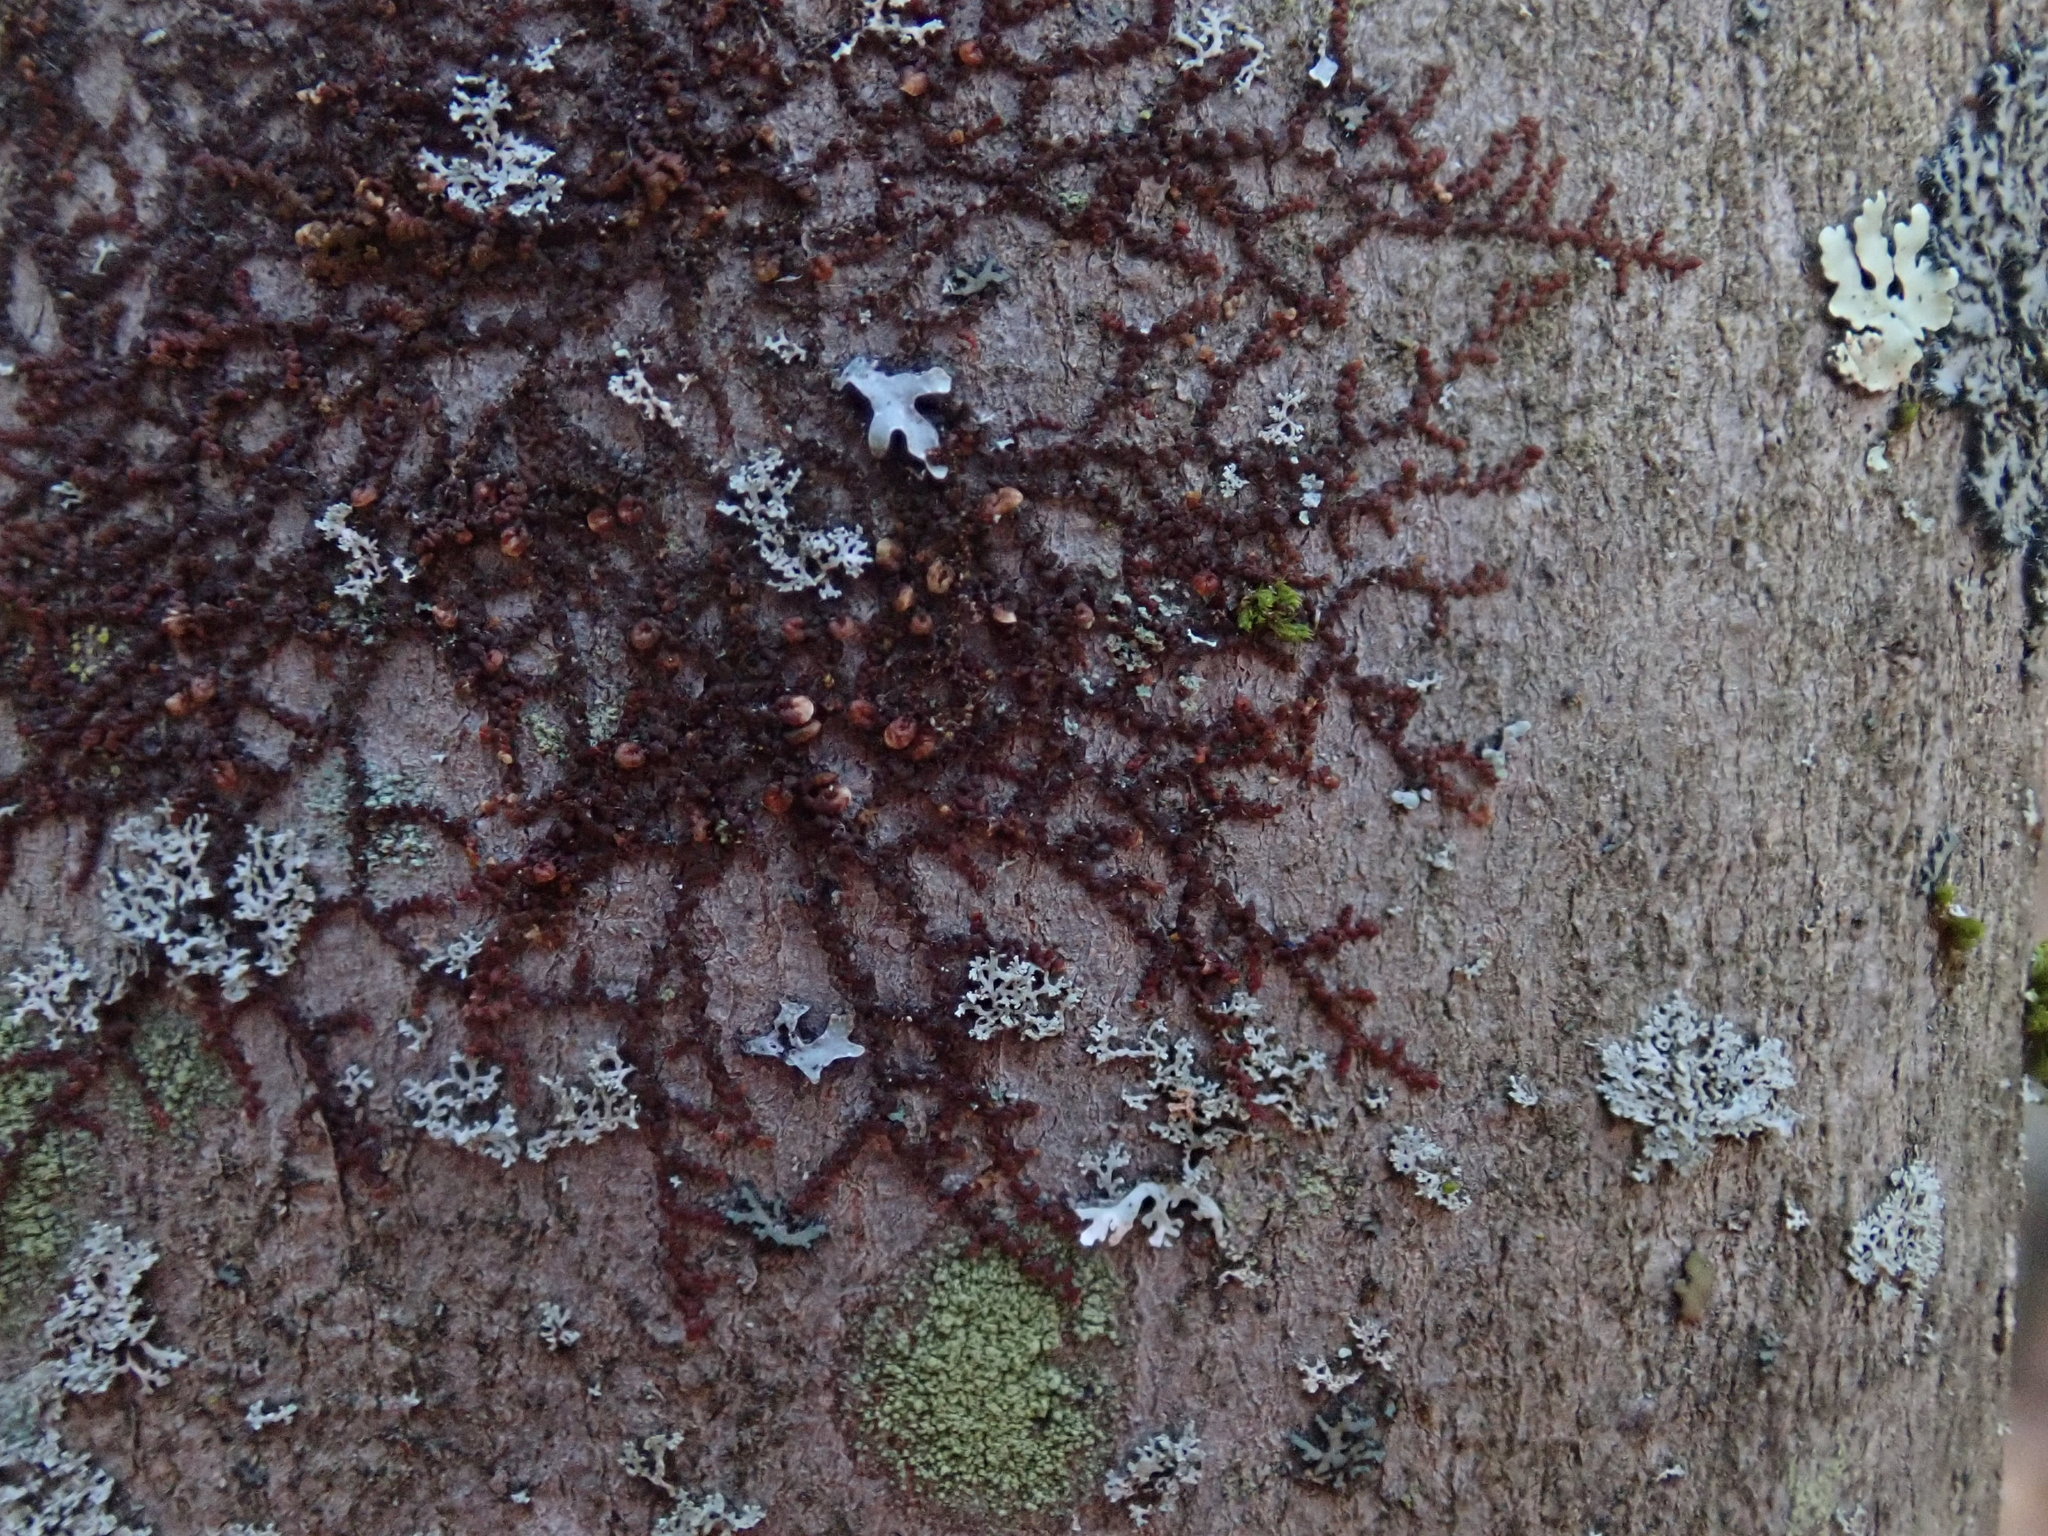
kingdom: Plantae
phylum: Marchantiophyta
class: Jungermanniopsida
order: Porellales
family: Frullaniaceae
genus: Frullania
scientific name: Frullania
